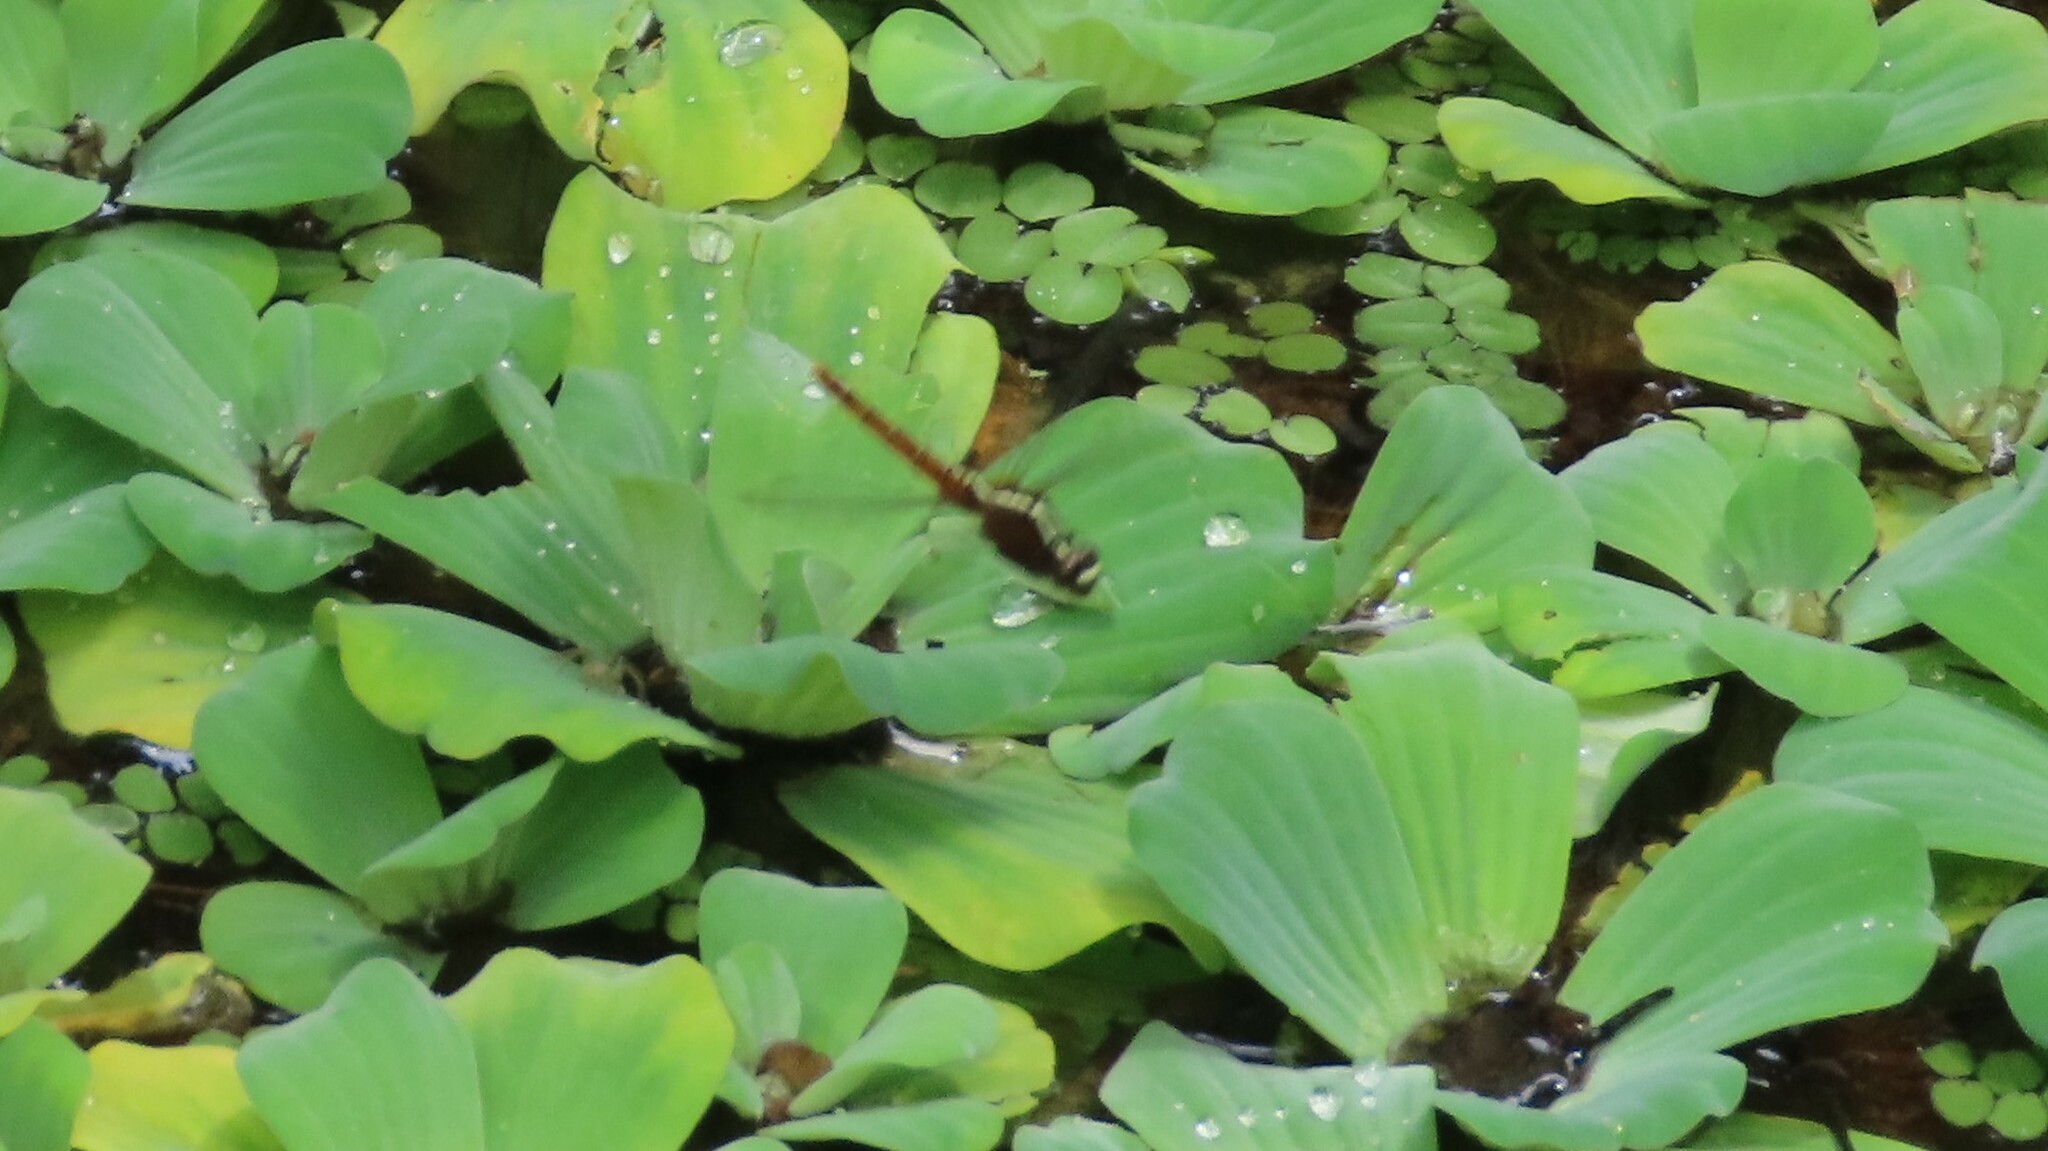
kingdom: Animalia
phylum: Arthropoda
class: Insecta
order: Odonata
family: Libellulidae
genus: Rhodothemis
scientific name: Rhodothemis rufa
